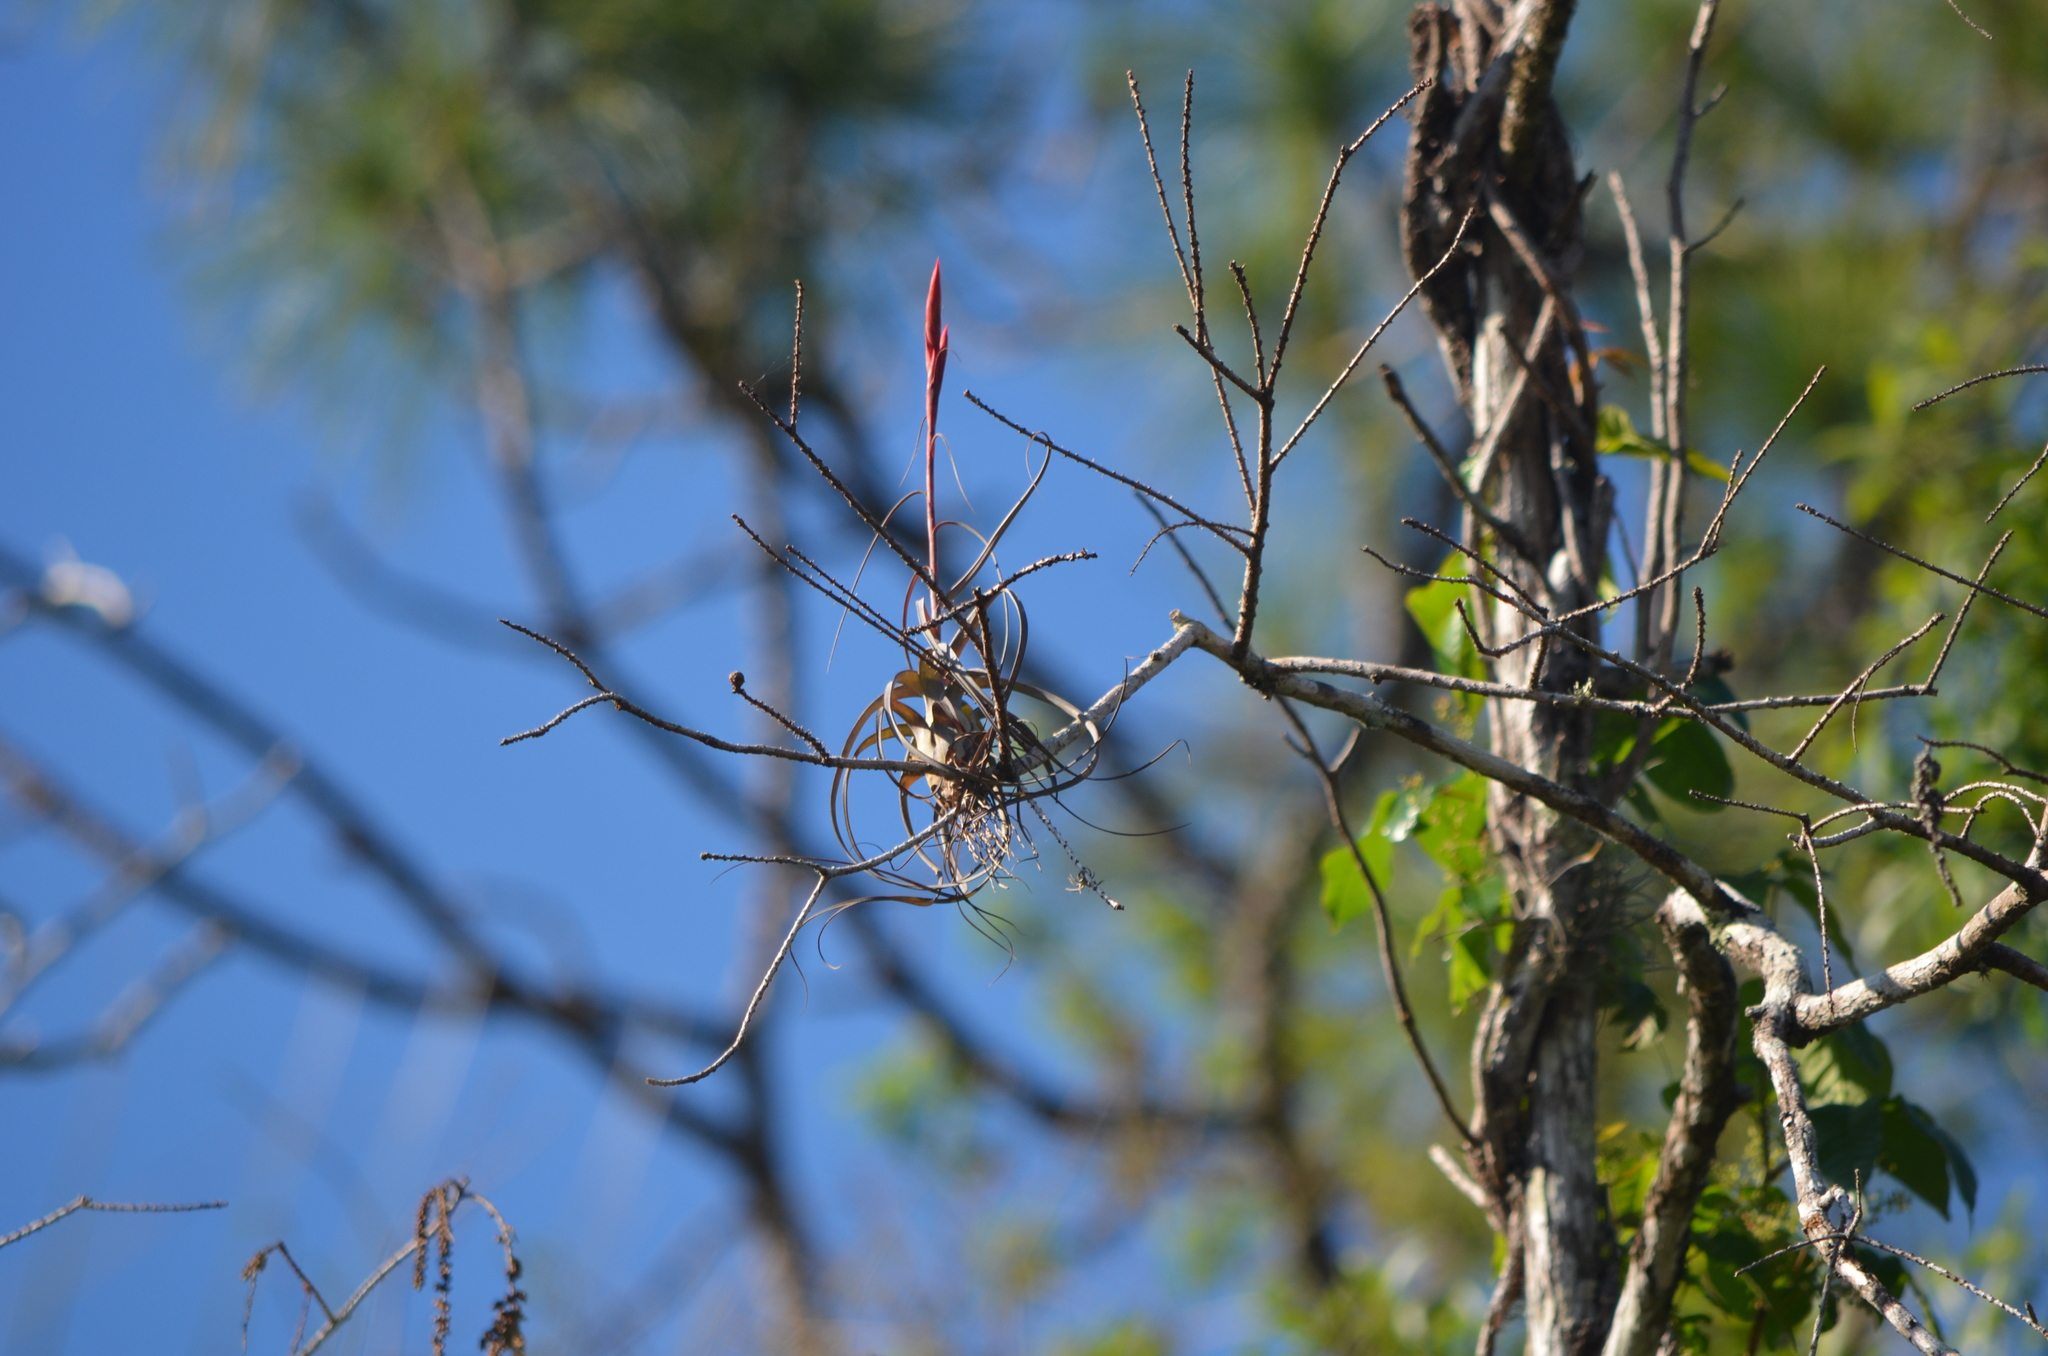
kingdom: Plantae
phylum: Tracheophyta
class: Liliopsida
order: Poales
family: Bromeliaceae
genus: Tillandsia
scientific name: Tillandsia balbisiana
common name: Northern needleleaf
